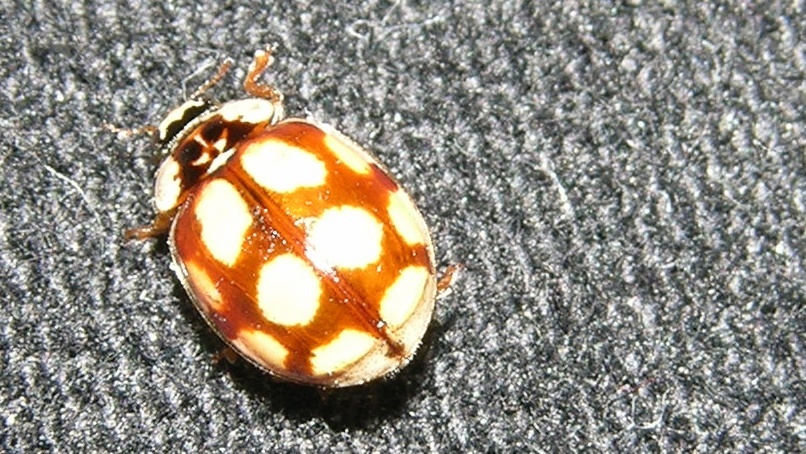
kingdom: Animalia
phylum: Arthropoda
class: Insecta
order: Coleoptera
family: Coccinellidae
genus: Adalia
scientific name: Adalia decempunctata
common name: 10-spot ladybird
